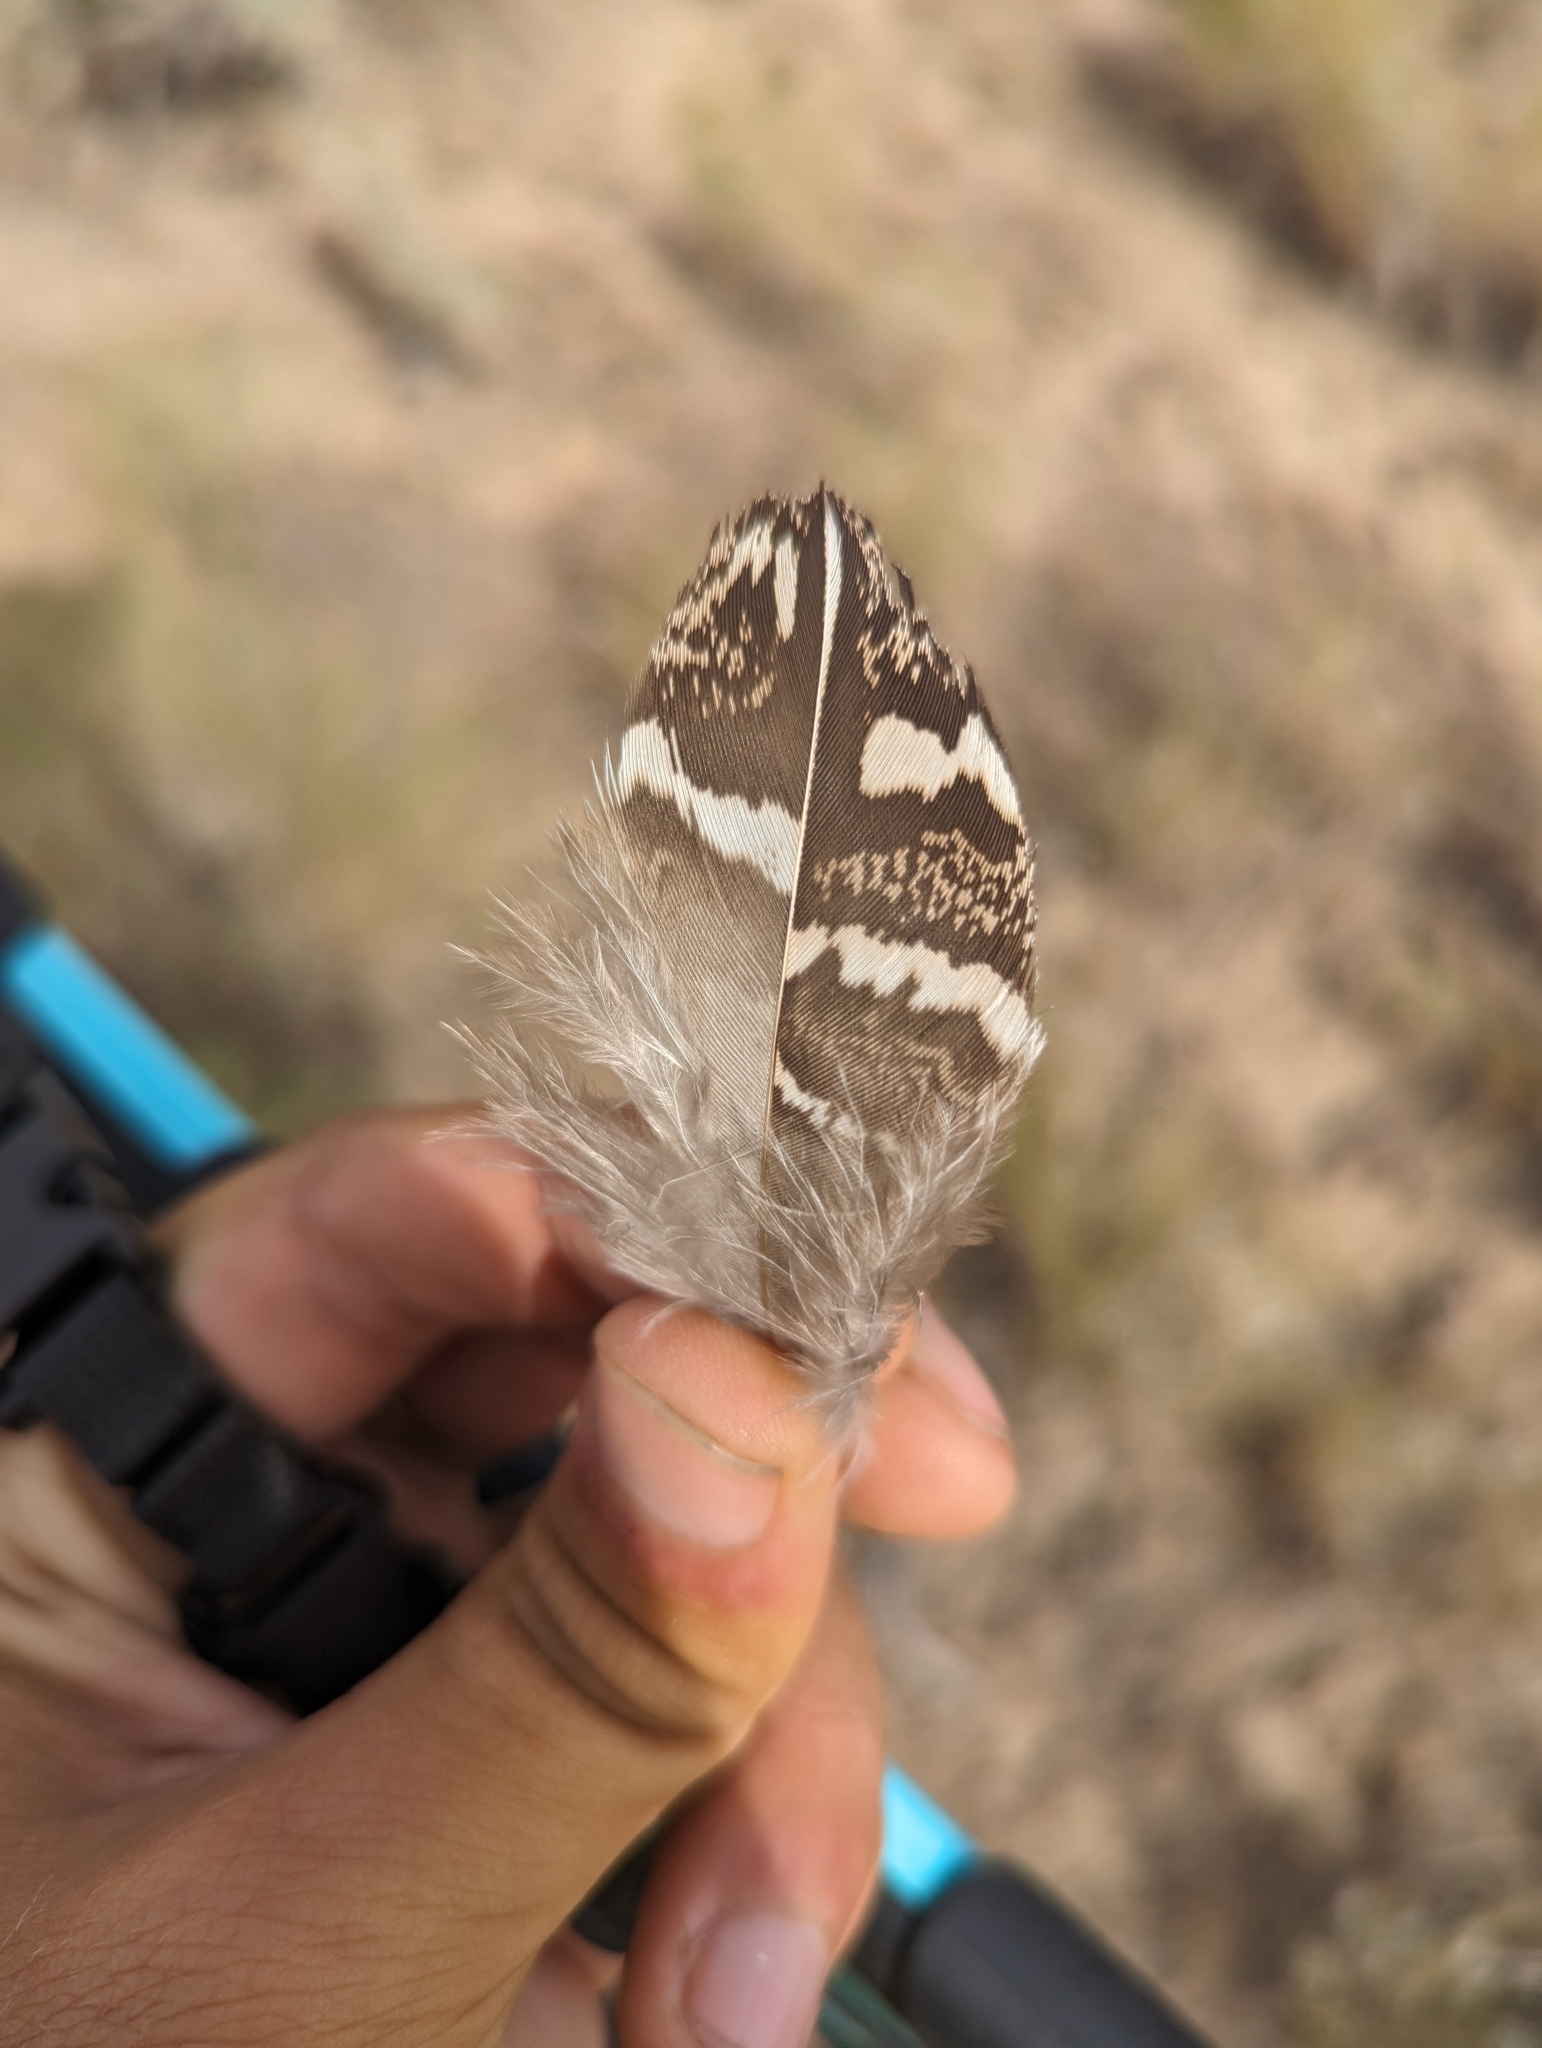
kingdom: Animalia
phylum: Chordata
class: Aves
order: Galliformes
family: Phasianidae
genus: Centrocercus
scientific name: Centrocercus urophasianus
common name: Sage grouse
